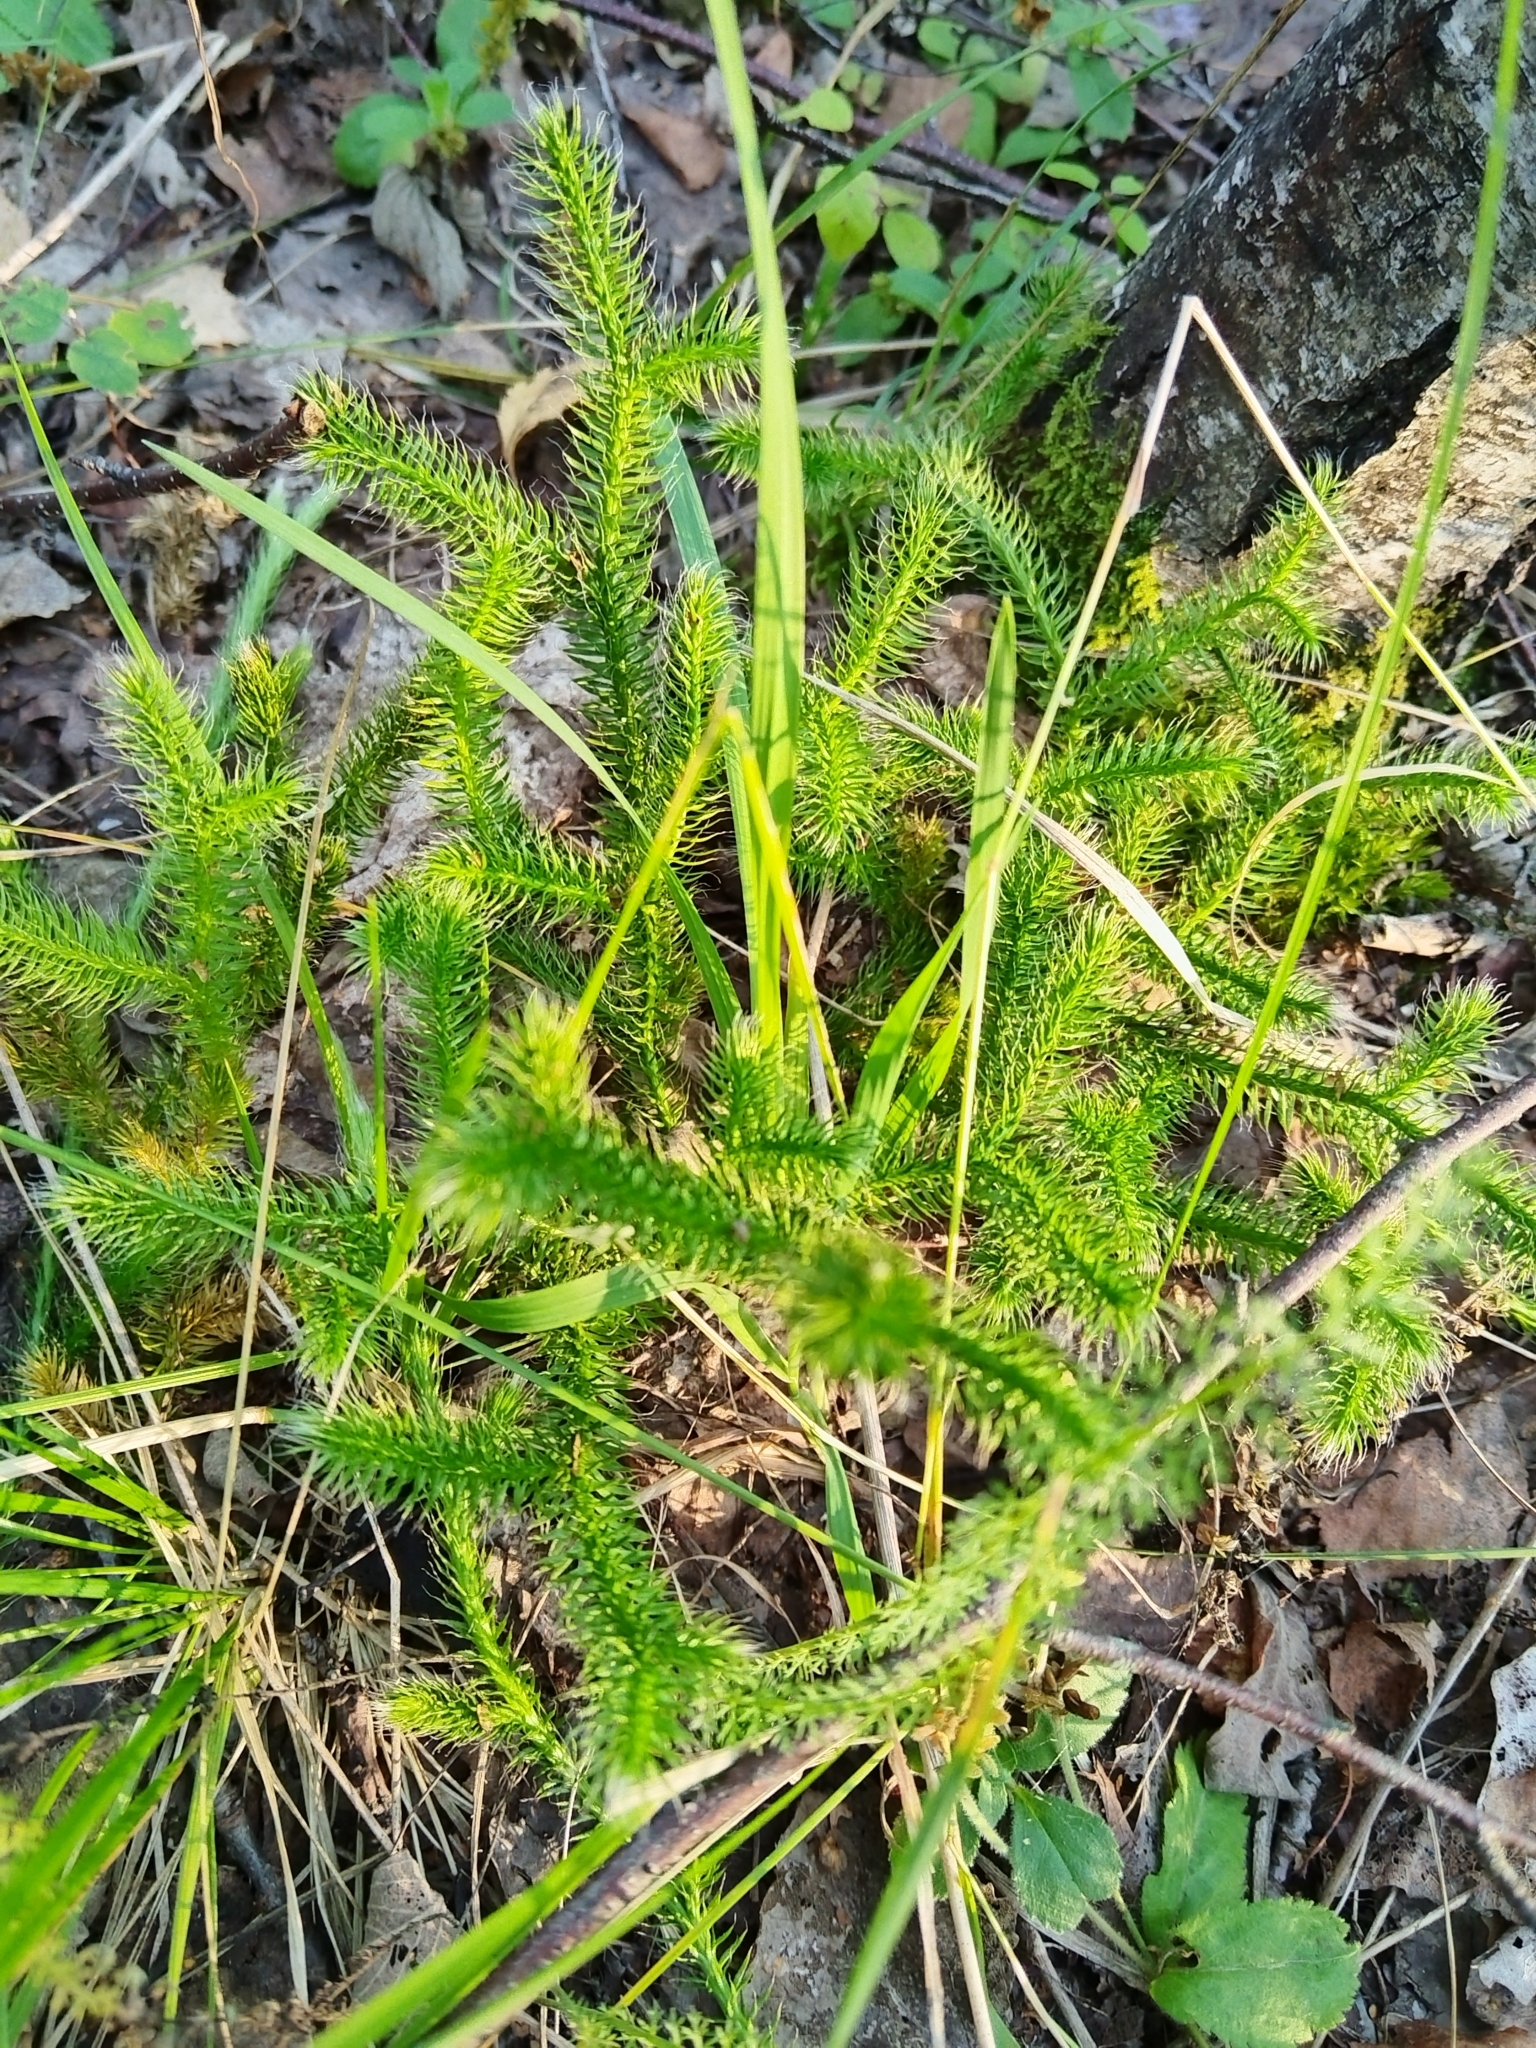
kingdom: Plantae
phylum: Tracheophyta
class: Lycopodiopsida
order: Lycopodiales
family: Lycopodiaceae
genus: Lycopodium
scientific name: Lycopodium clavatum
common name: Stag's-horn clubmoss
